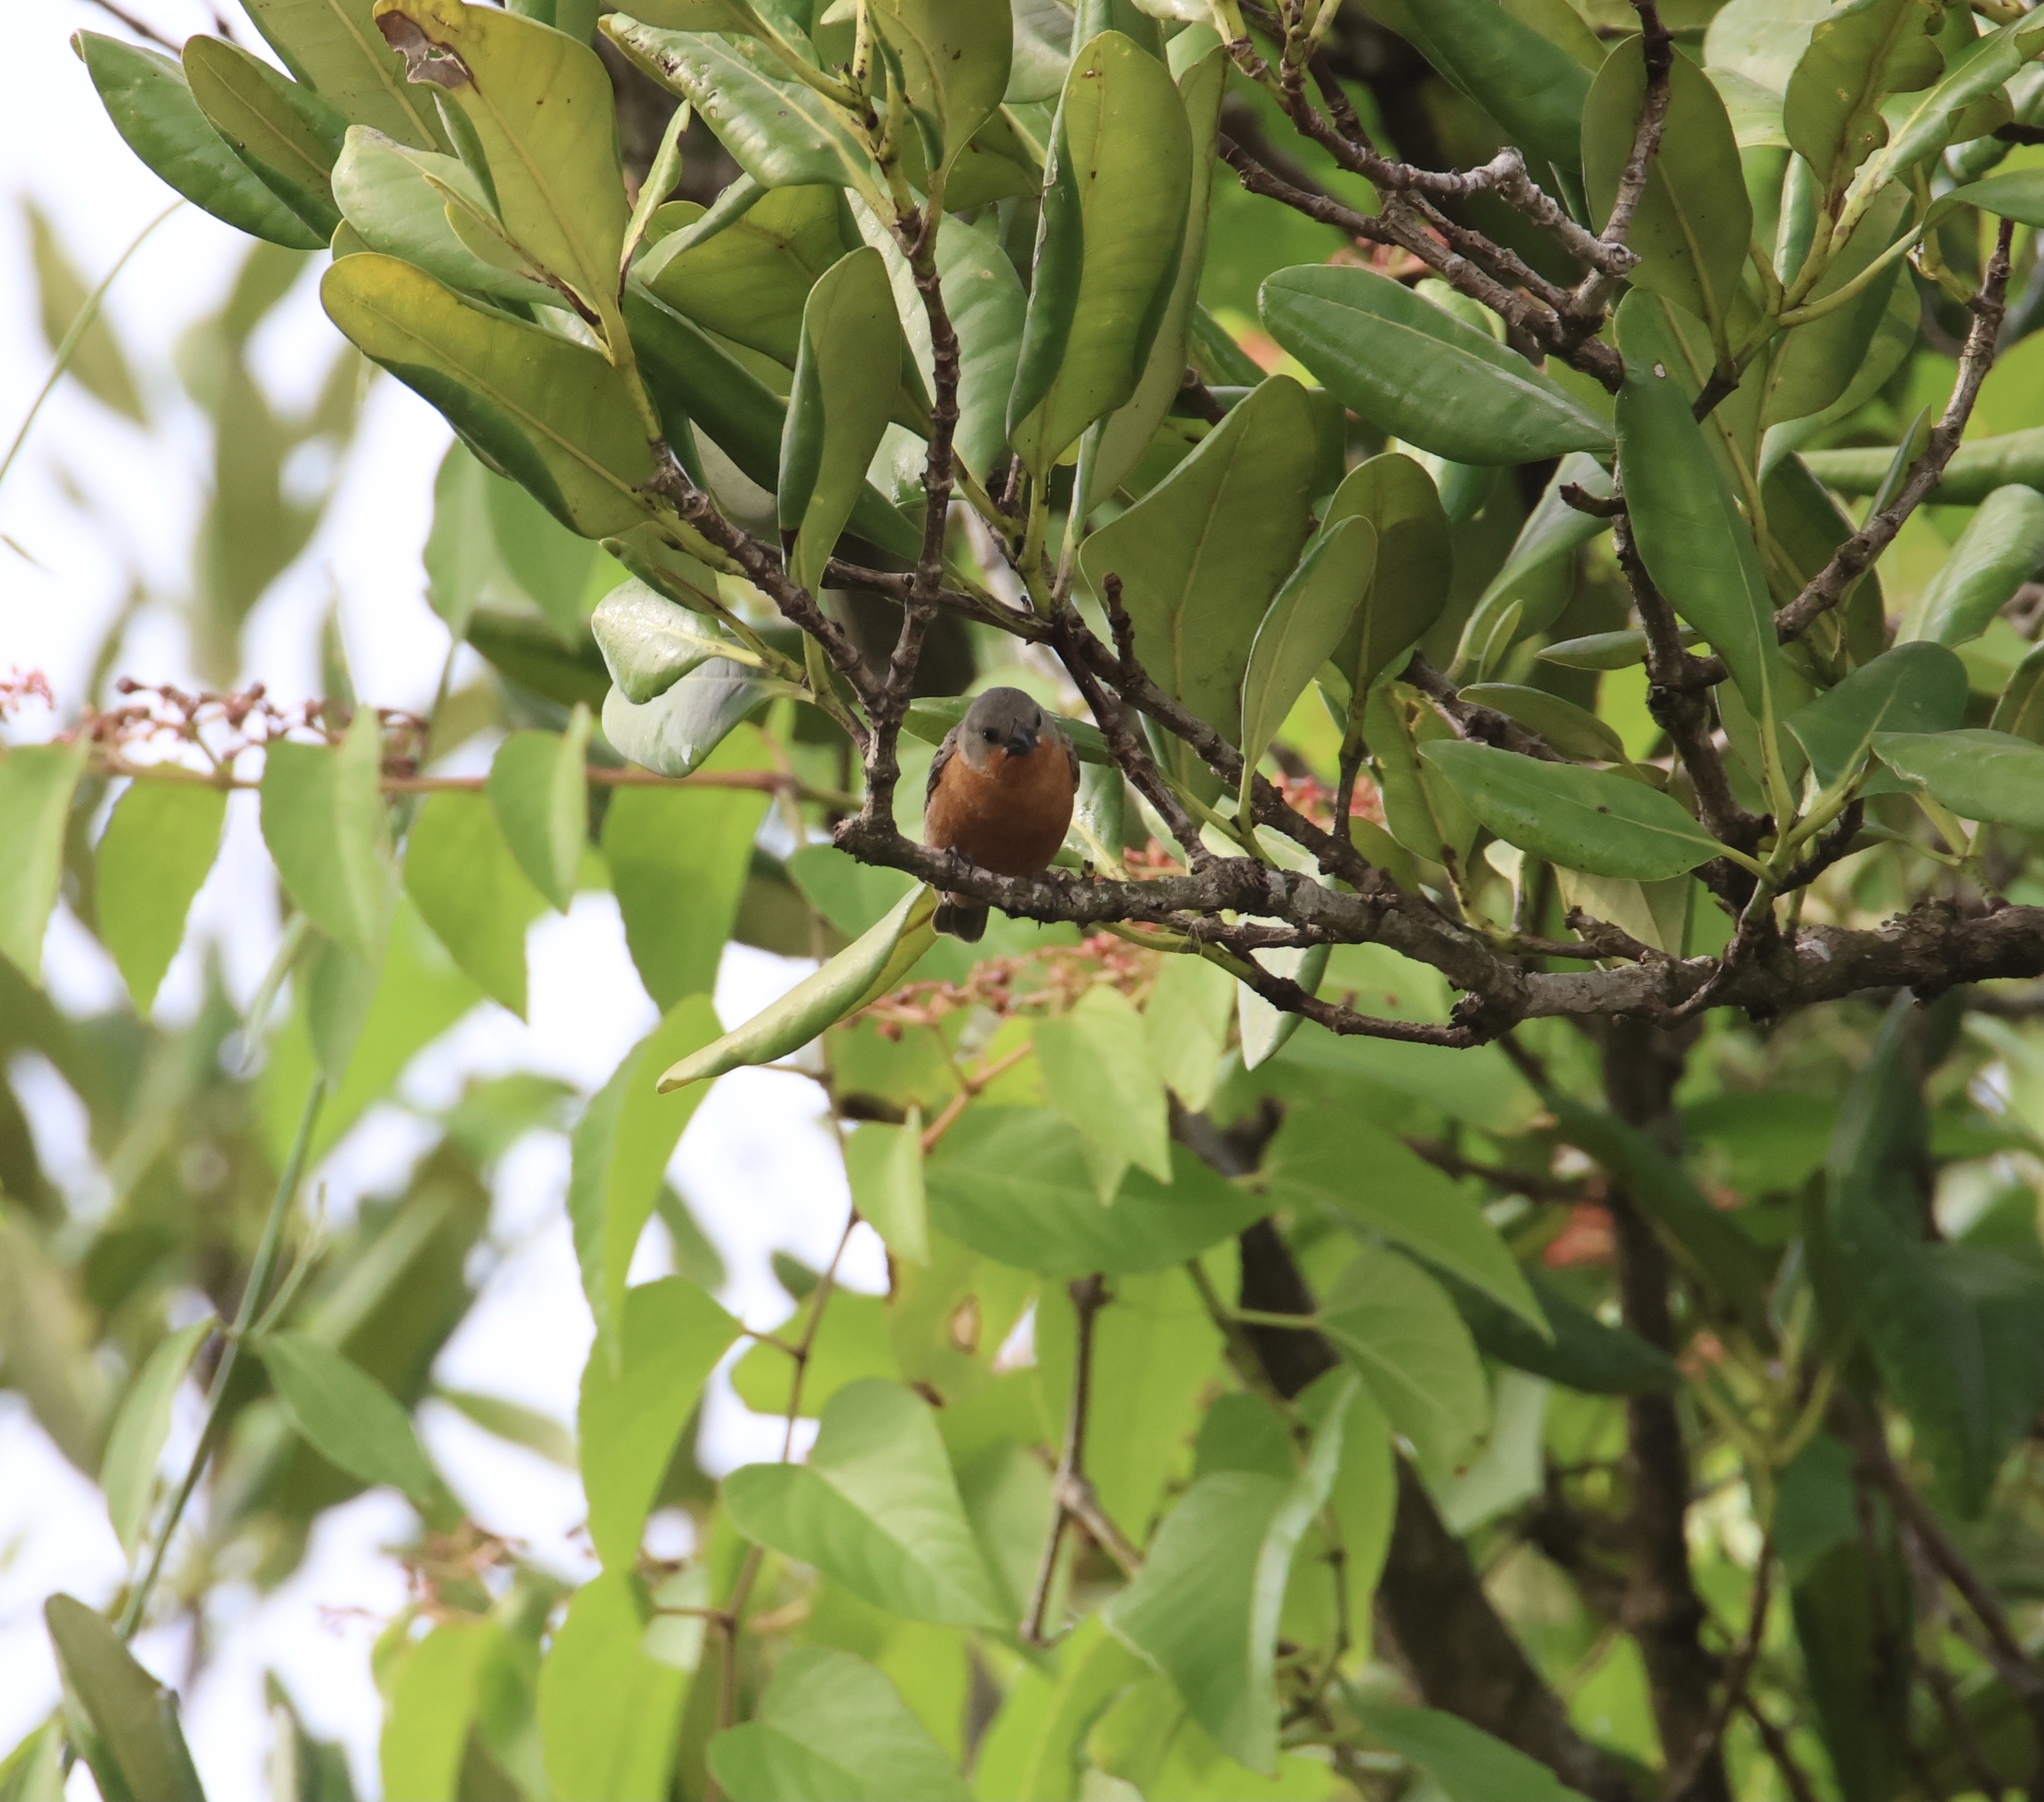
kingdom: Animalia
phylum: Chordata
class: Aves
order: Passeriformes
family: Thraupidae
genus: Sporophila
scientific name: Sporophila minuta
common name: Ruddy-breasted seedeater
